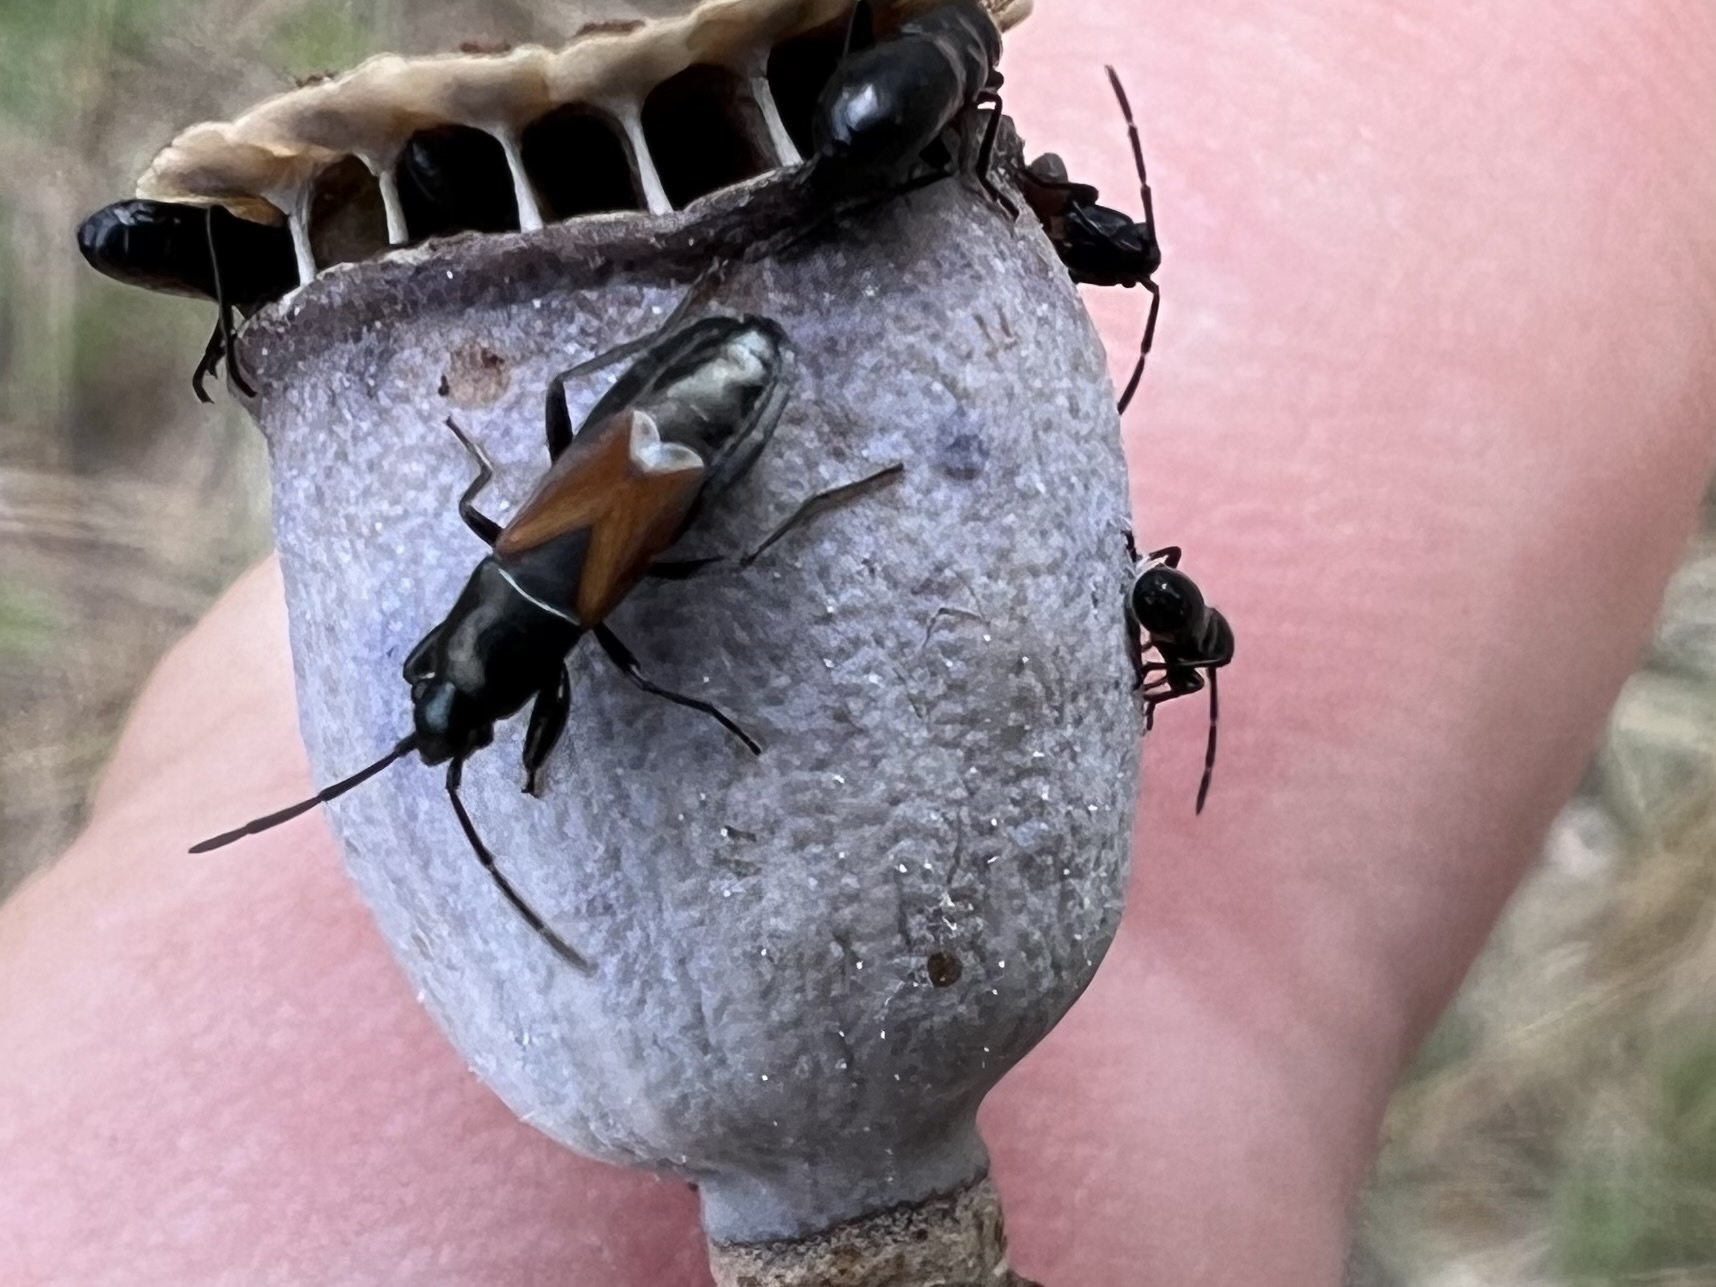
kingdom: Animalia
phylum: Arthropoda
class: Insecta
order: Hemiptera
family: Rhyparochromidae
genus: Pterotmetus
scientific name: Pterotmetus staphyliniformis
